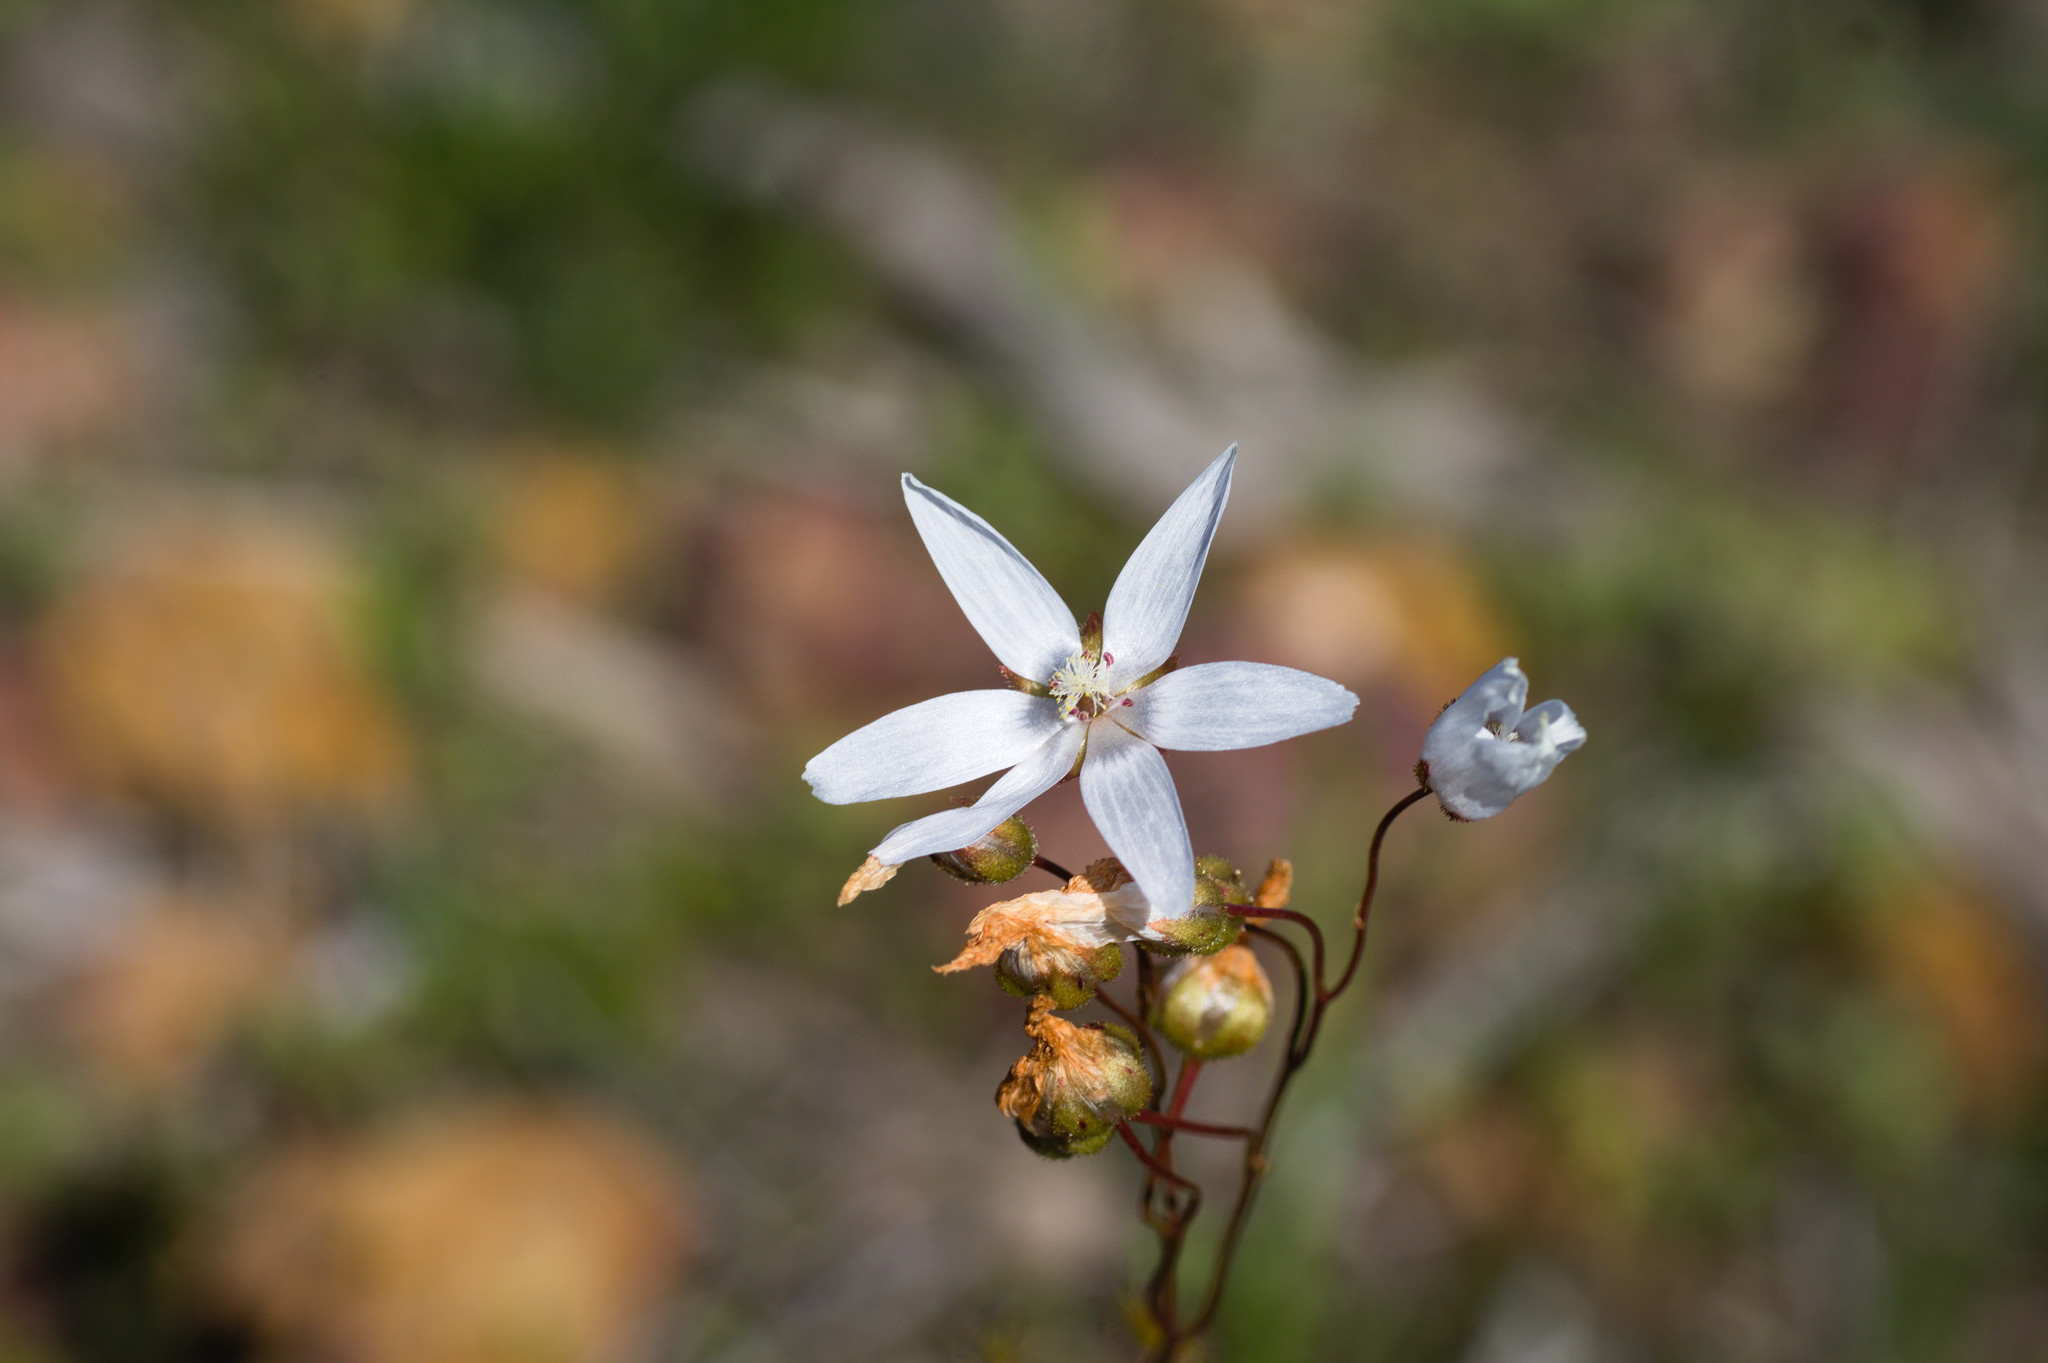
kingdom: Plantae
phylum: Tracheophyta
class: Magnoliopsida
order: Caryophyllales
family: Droseraceae
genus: Drosera
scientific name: Drosera marchantii
